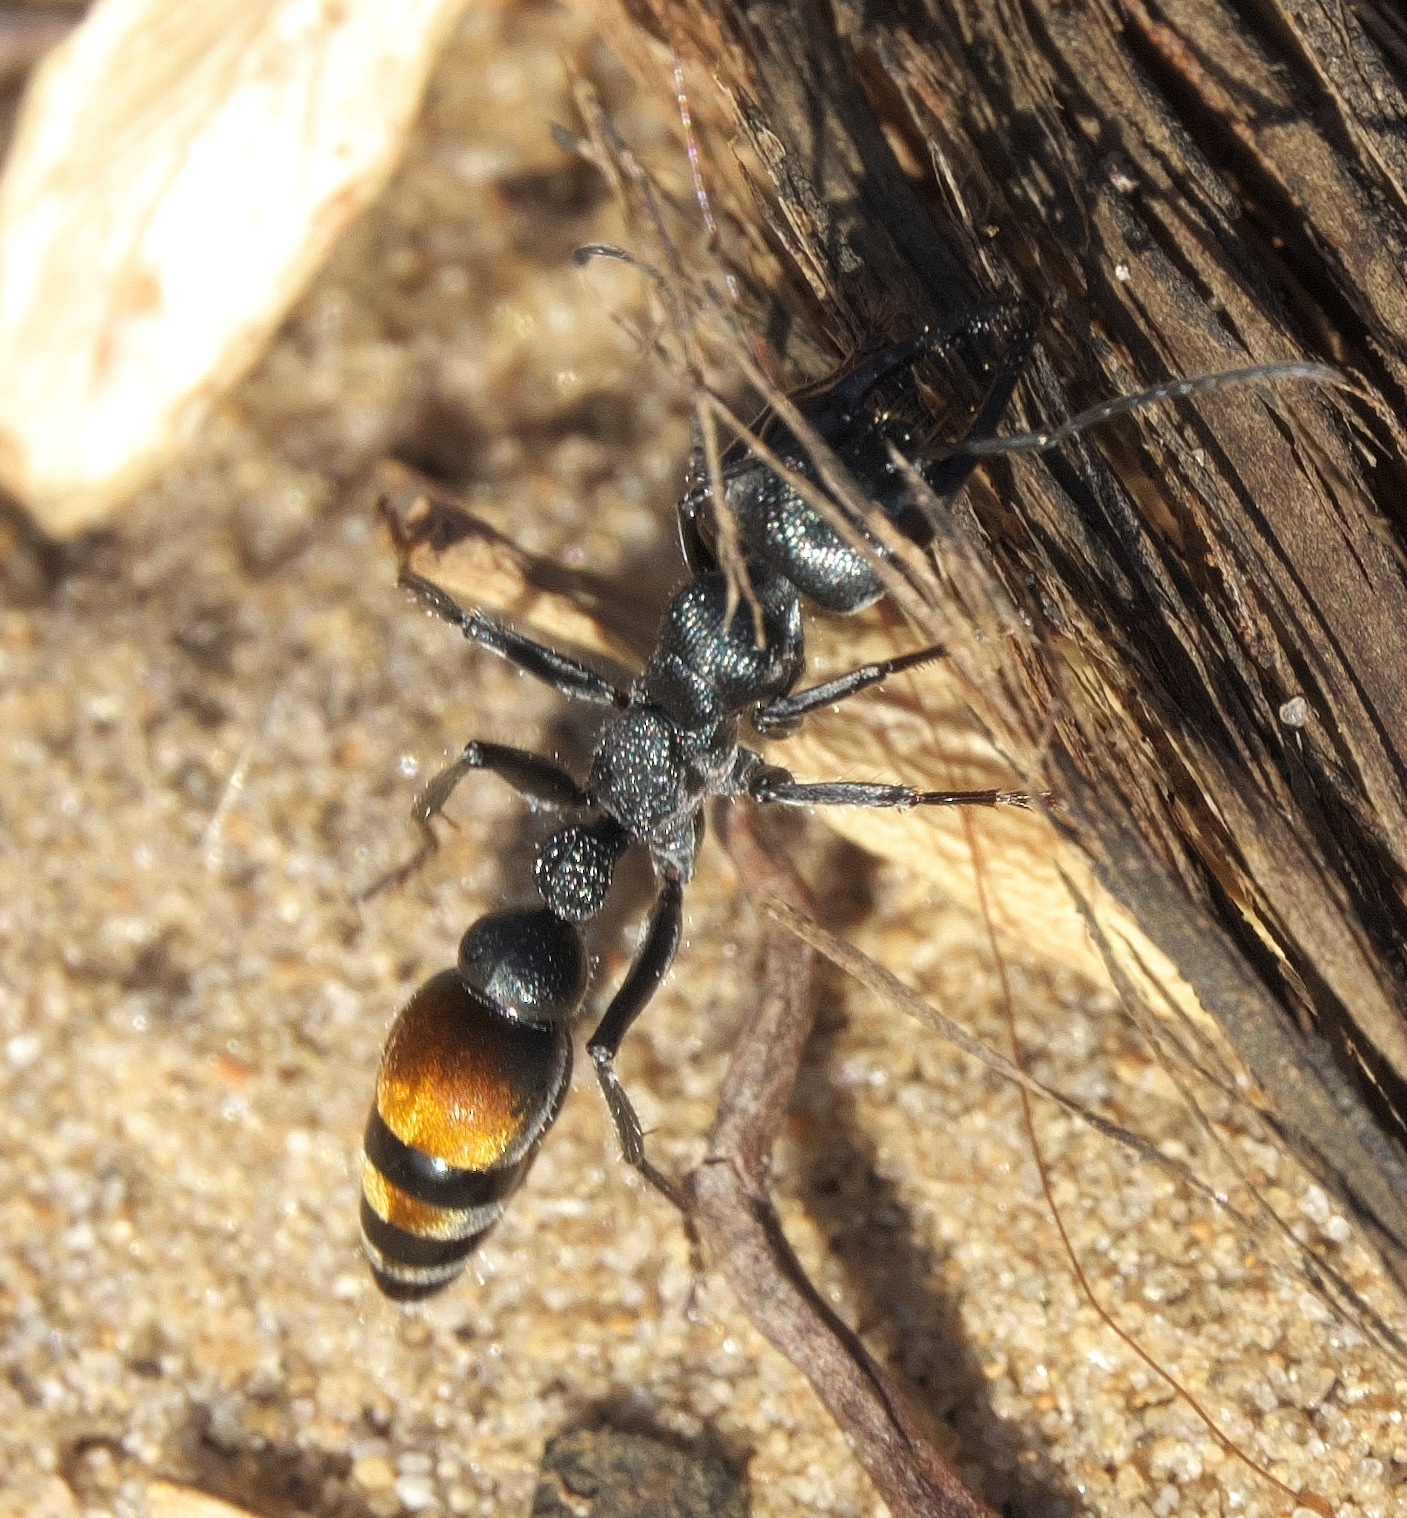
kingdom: Animalia
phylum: Arthropoda
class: Insecta
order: Hymenoptera
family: Formicidae
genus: Myrmecia
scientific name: Myrmecia mandibularis
